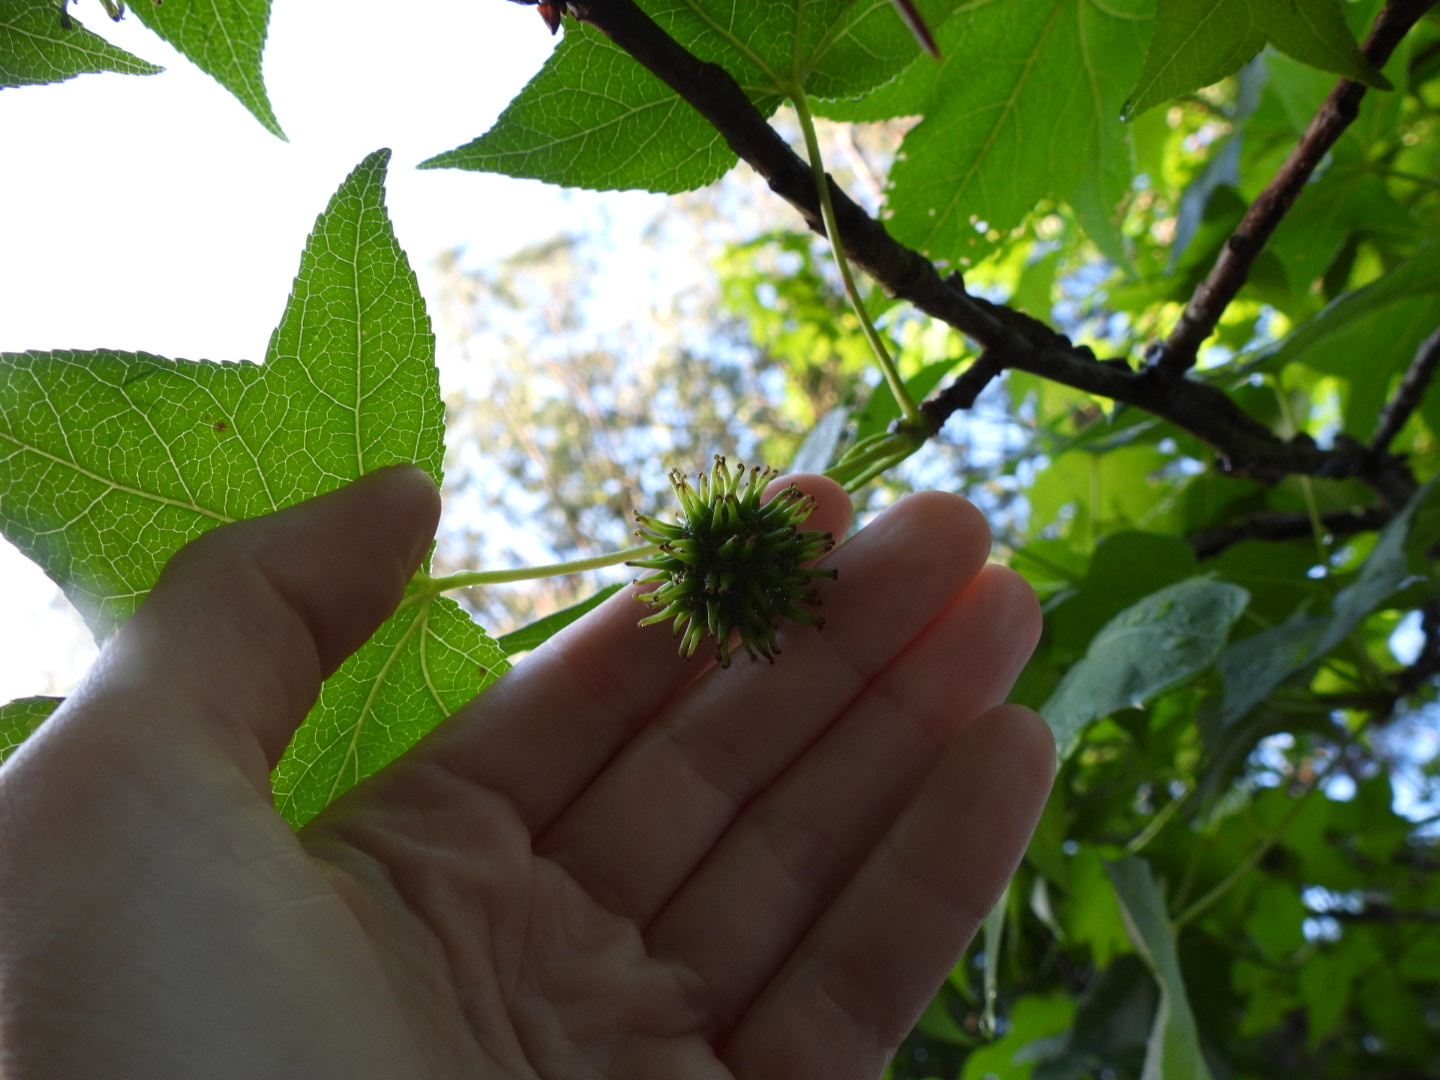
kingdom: Plantae
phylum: Tracheophyta
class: Magnoliopsida
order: Saxifragales
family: Altingiaceae
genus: Liquidambar
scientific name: Liquidambar styraciflua
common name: Sweet gum
